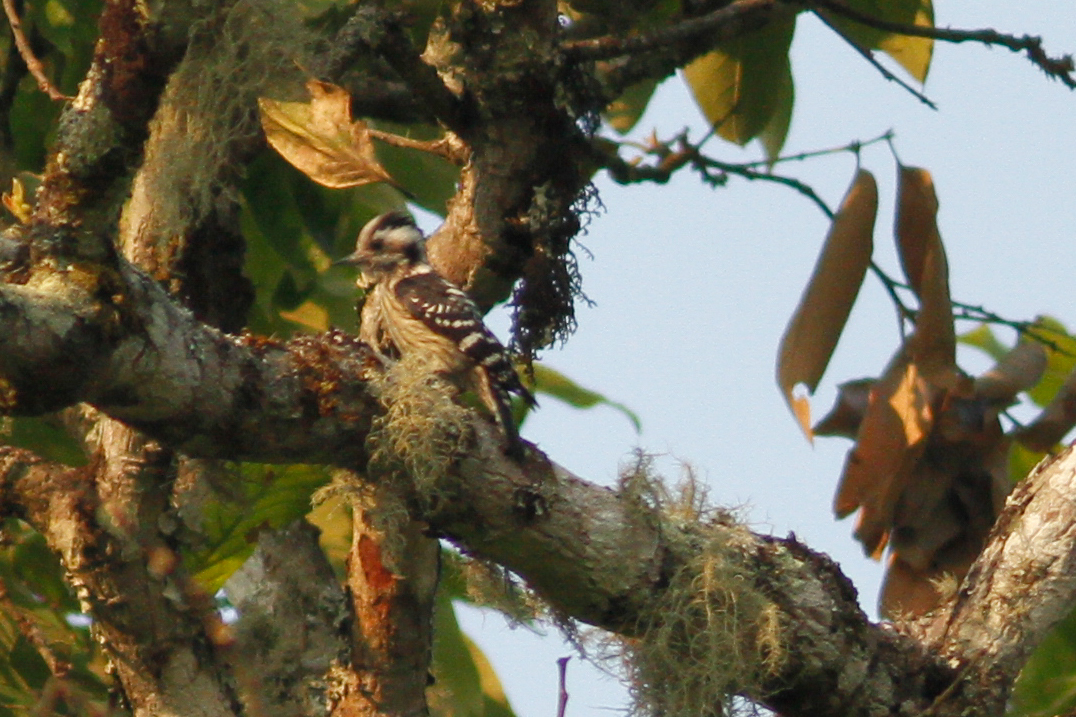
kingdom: Animalia
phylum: Chordata
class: Aves
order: Piciformes
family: Picidae
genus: Yungipicus
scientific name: Yungipicus canicapillus
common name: Grey-capped pygmy woodpecker
